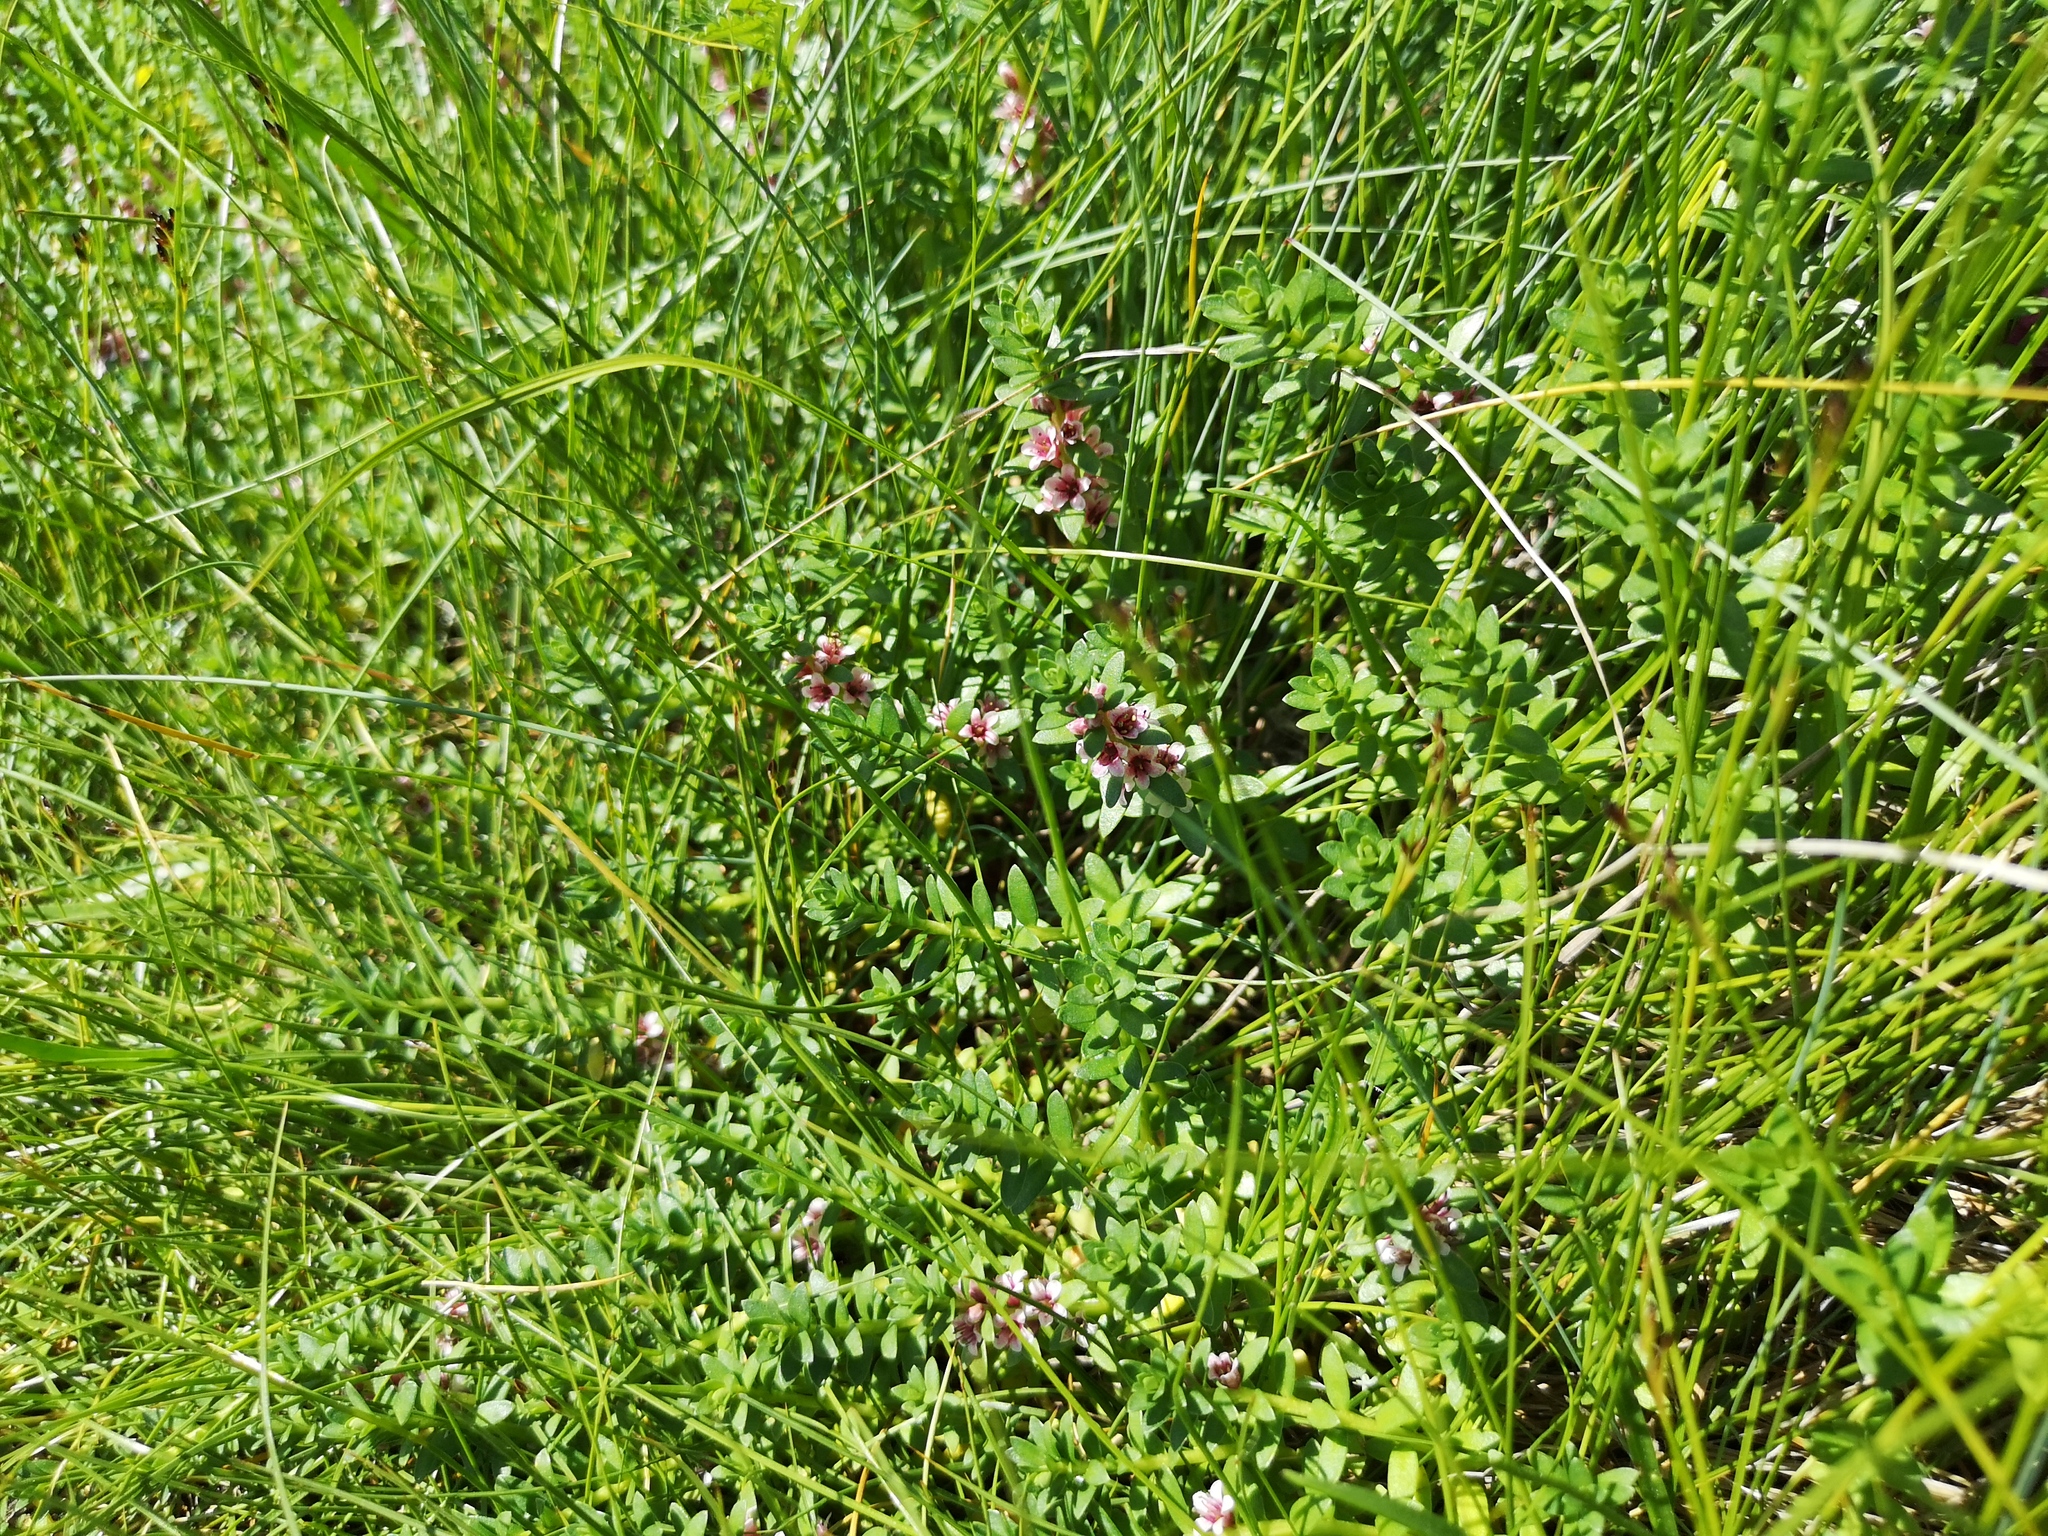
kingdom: Plantae
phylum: Tracheophyta
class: Magnoliopsida
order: Ericales
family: Primulaceae
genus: Lysimachia
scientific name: Lysimachia maritima
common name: Sea milkwort
